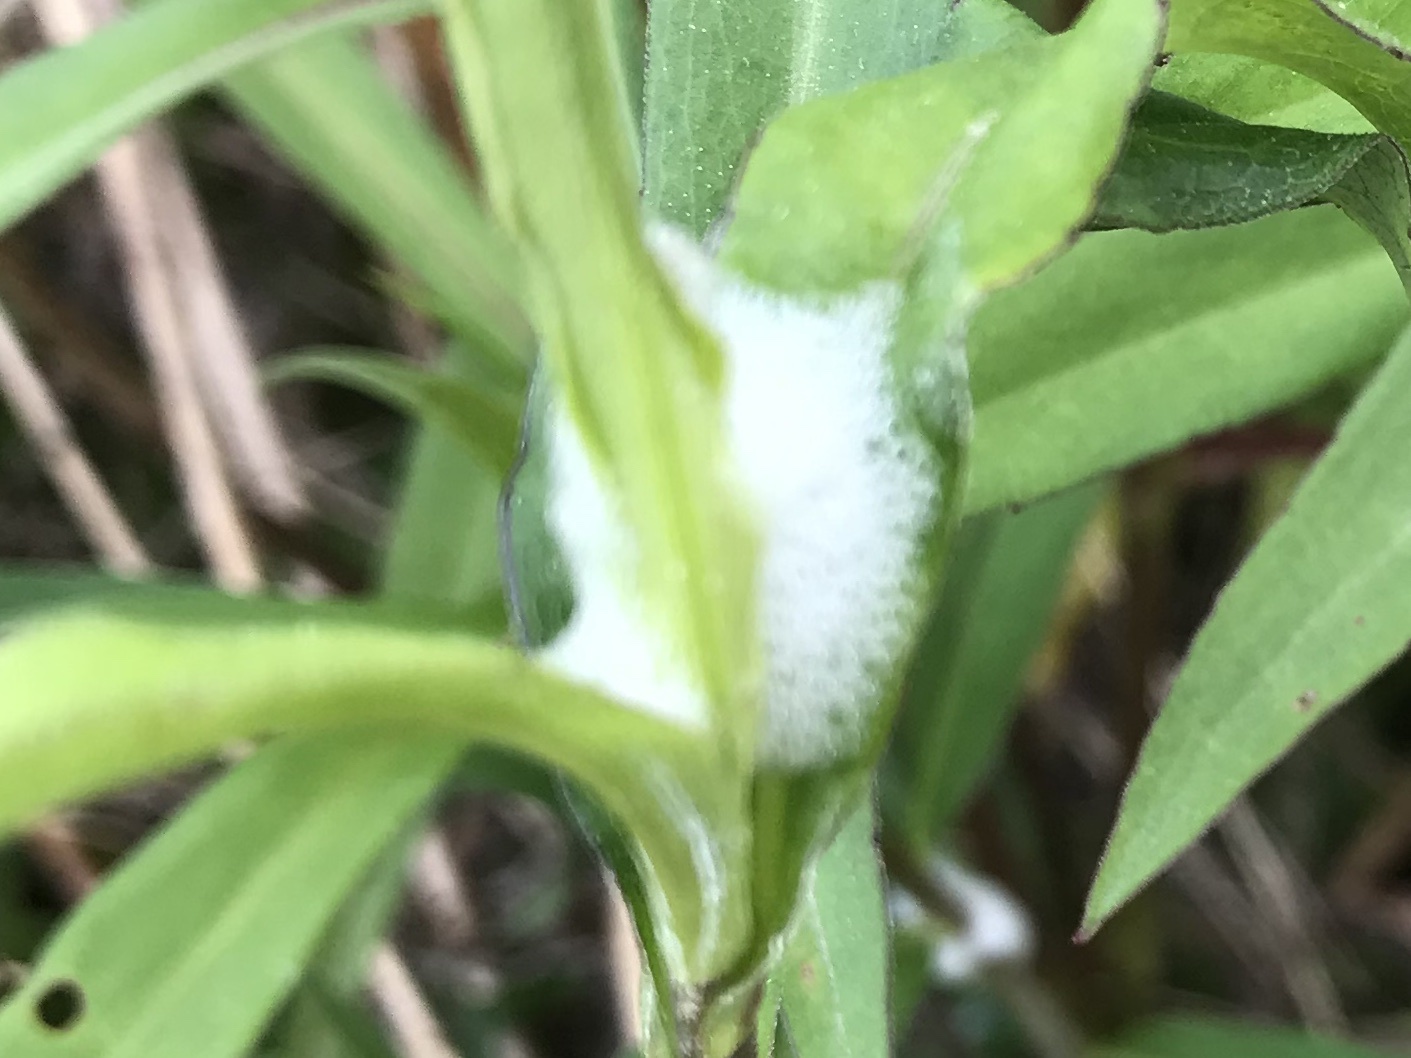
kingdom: Animalia
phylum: Arthropoda
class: Insecta
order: Hemiptera
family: Aphrophoridae
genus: Philaenus
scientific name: Philaenus spumarius
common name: Meadow spittlebug
